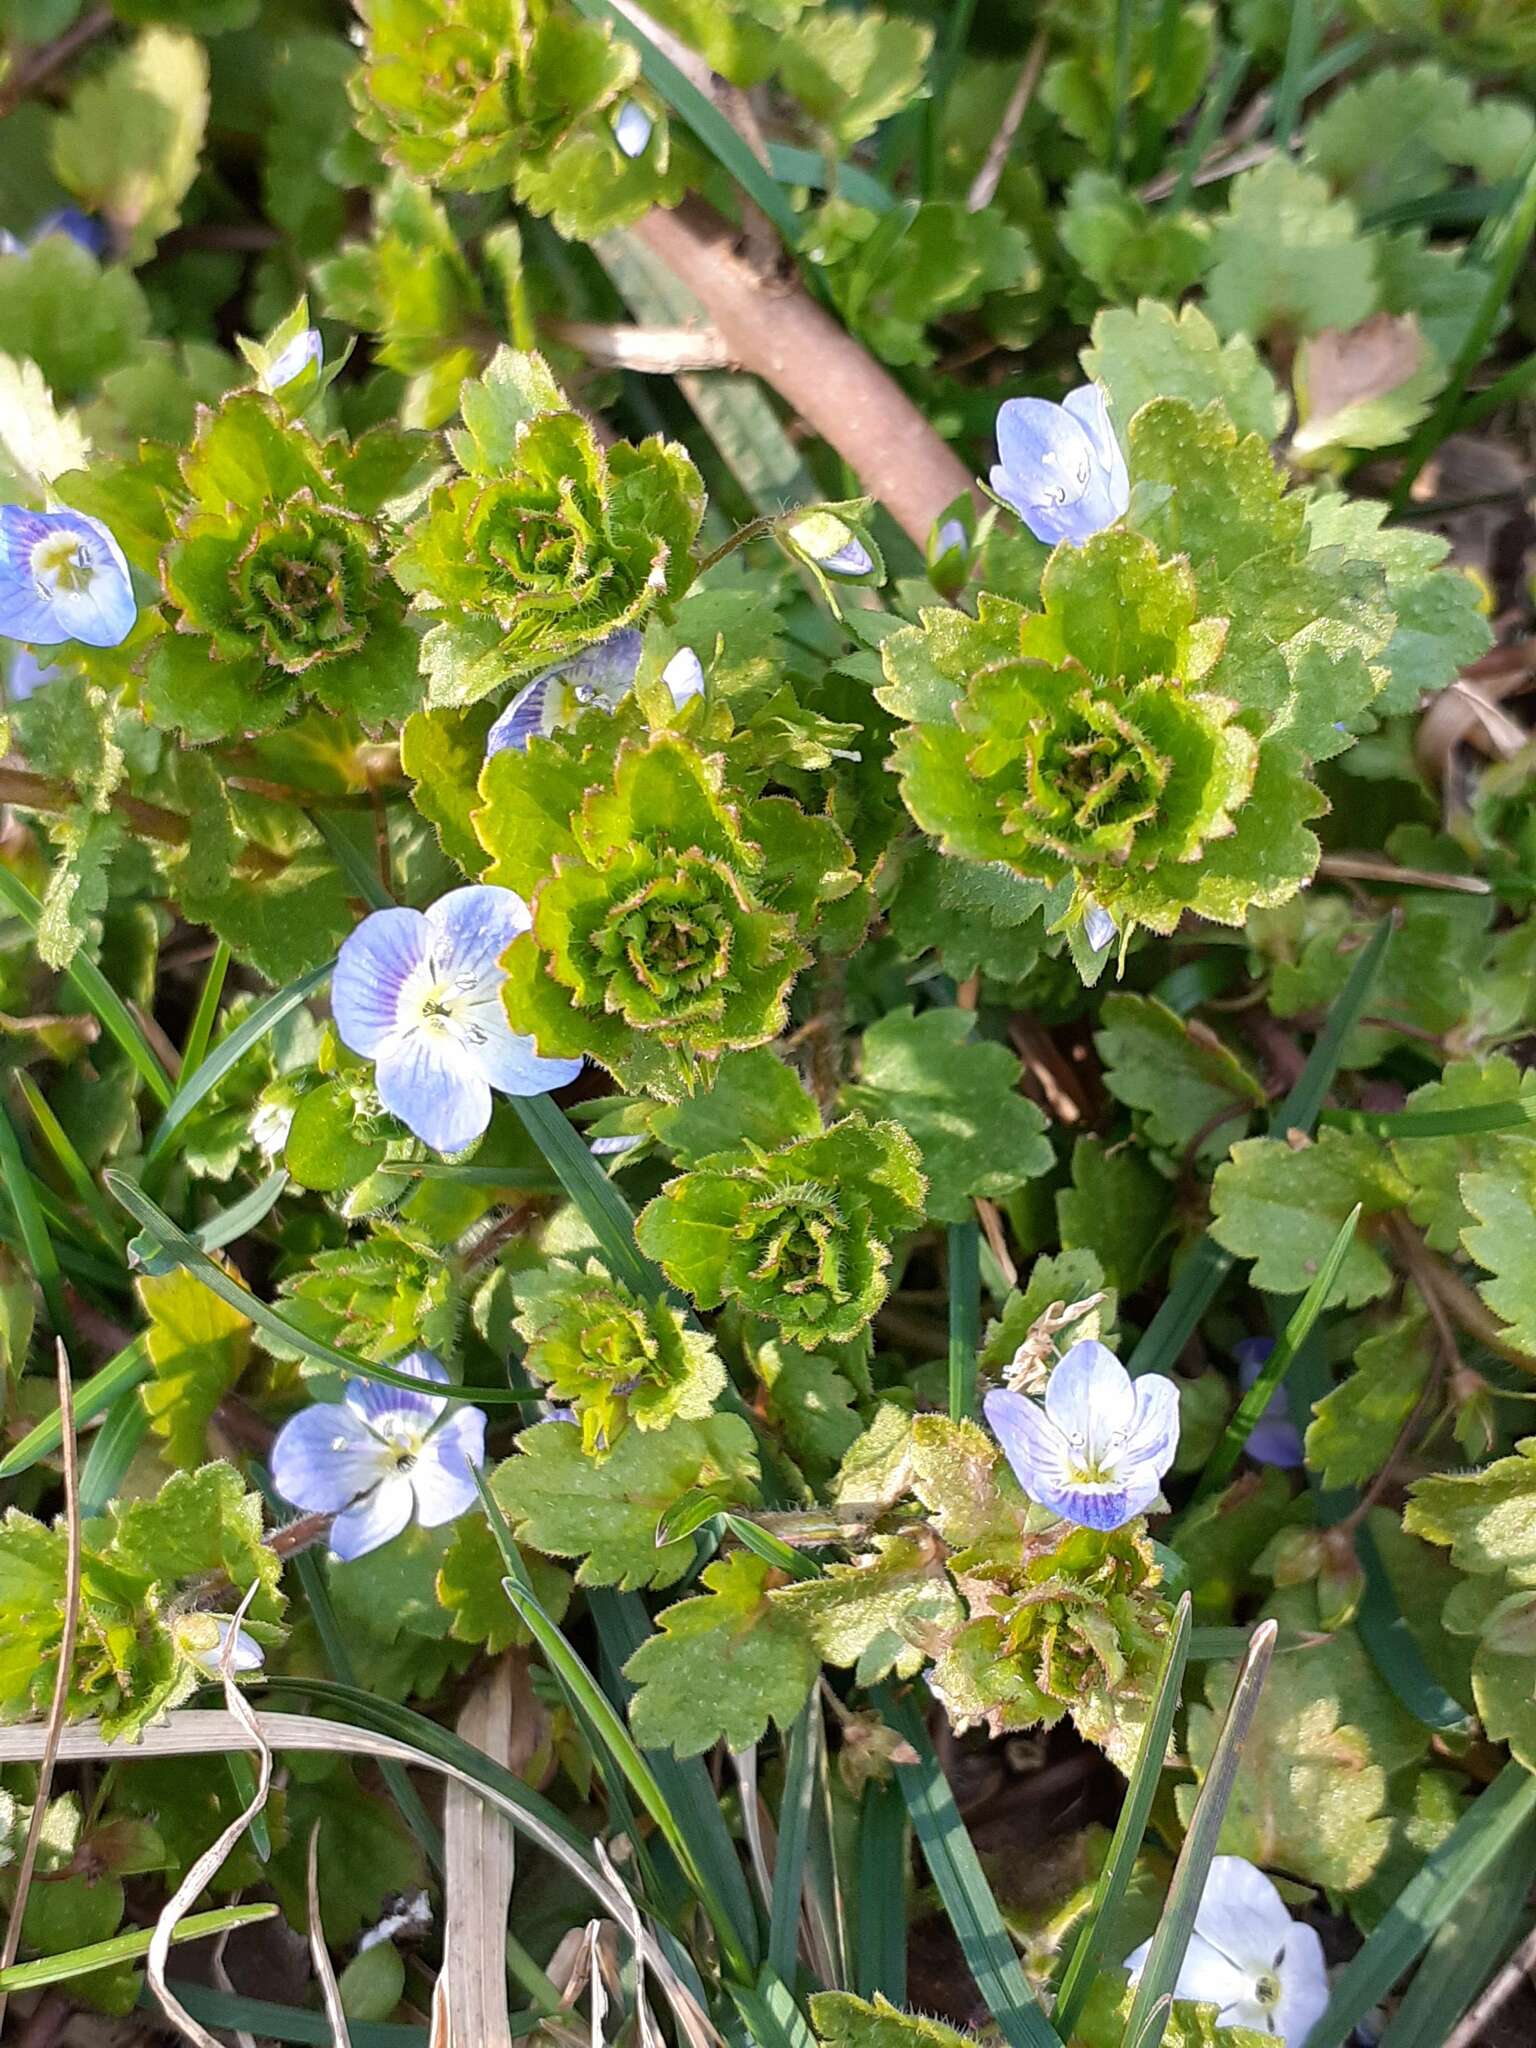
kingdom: Plantae
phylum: Tracheophyta
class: Magnoliopsida
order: Lamiales
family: Plantaginaceae
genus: Veronica
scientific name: Veronica persica
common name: Common field-speedwell
